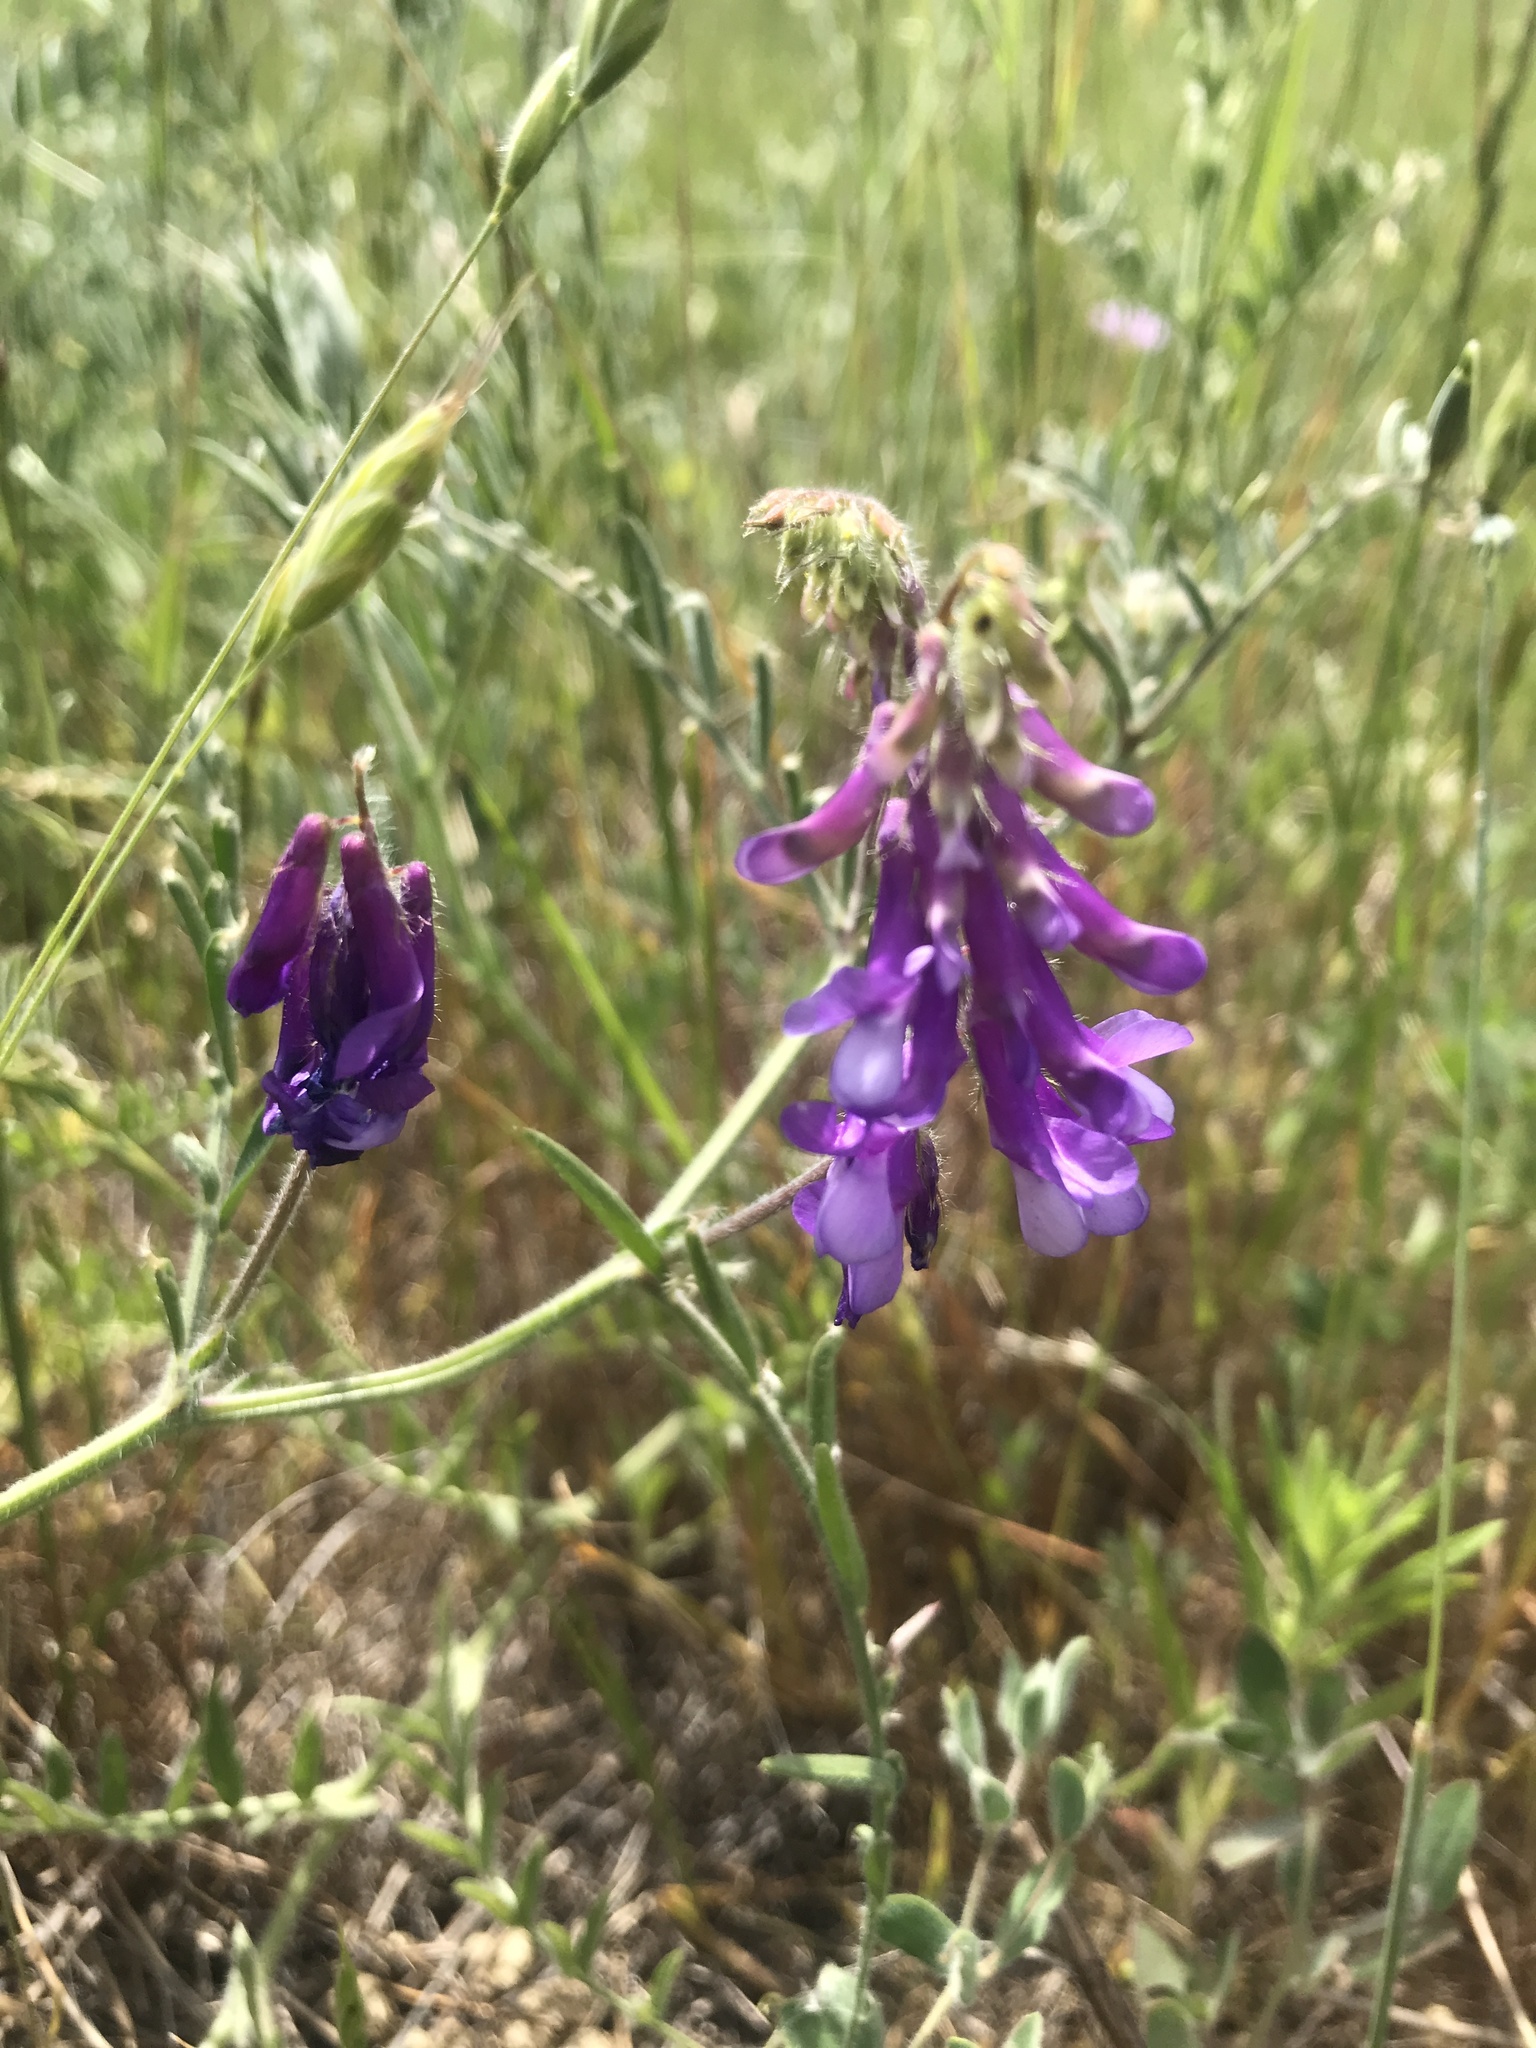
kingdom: Plantae
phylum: Tracheophyta
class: Magnoliopsida
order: Fabales
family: Fabaceae
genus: Vicia
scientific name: Vicia villosa
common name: Fodder vetch
